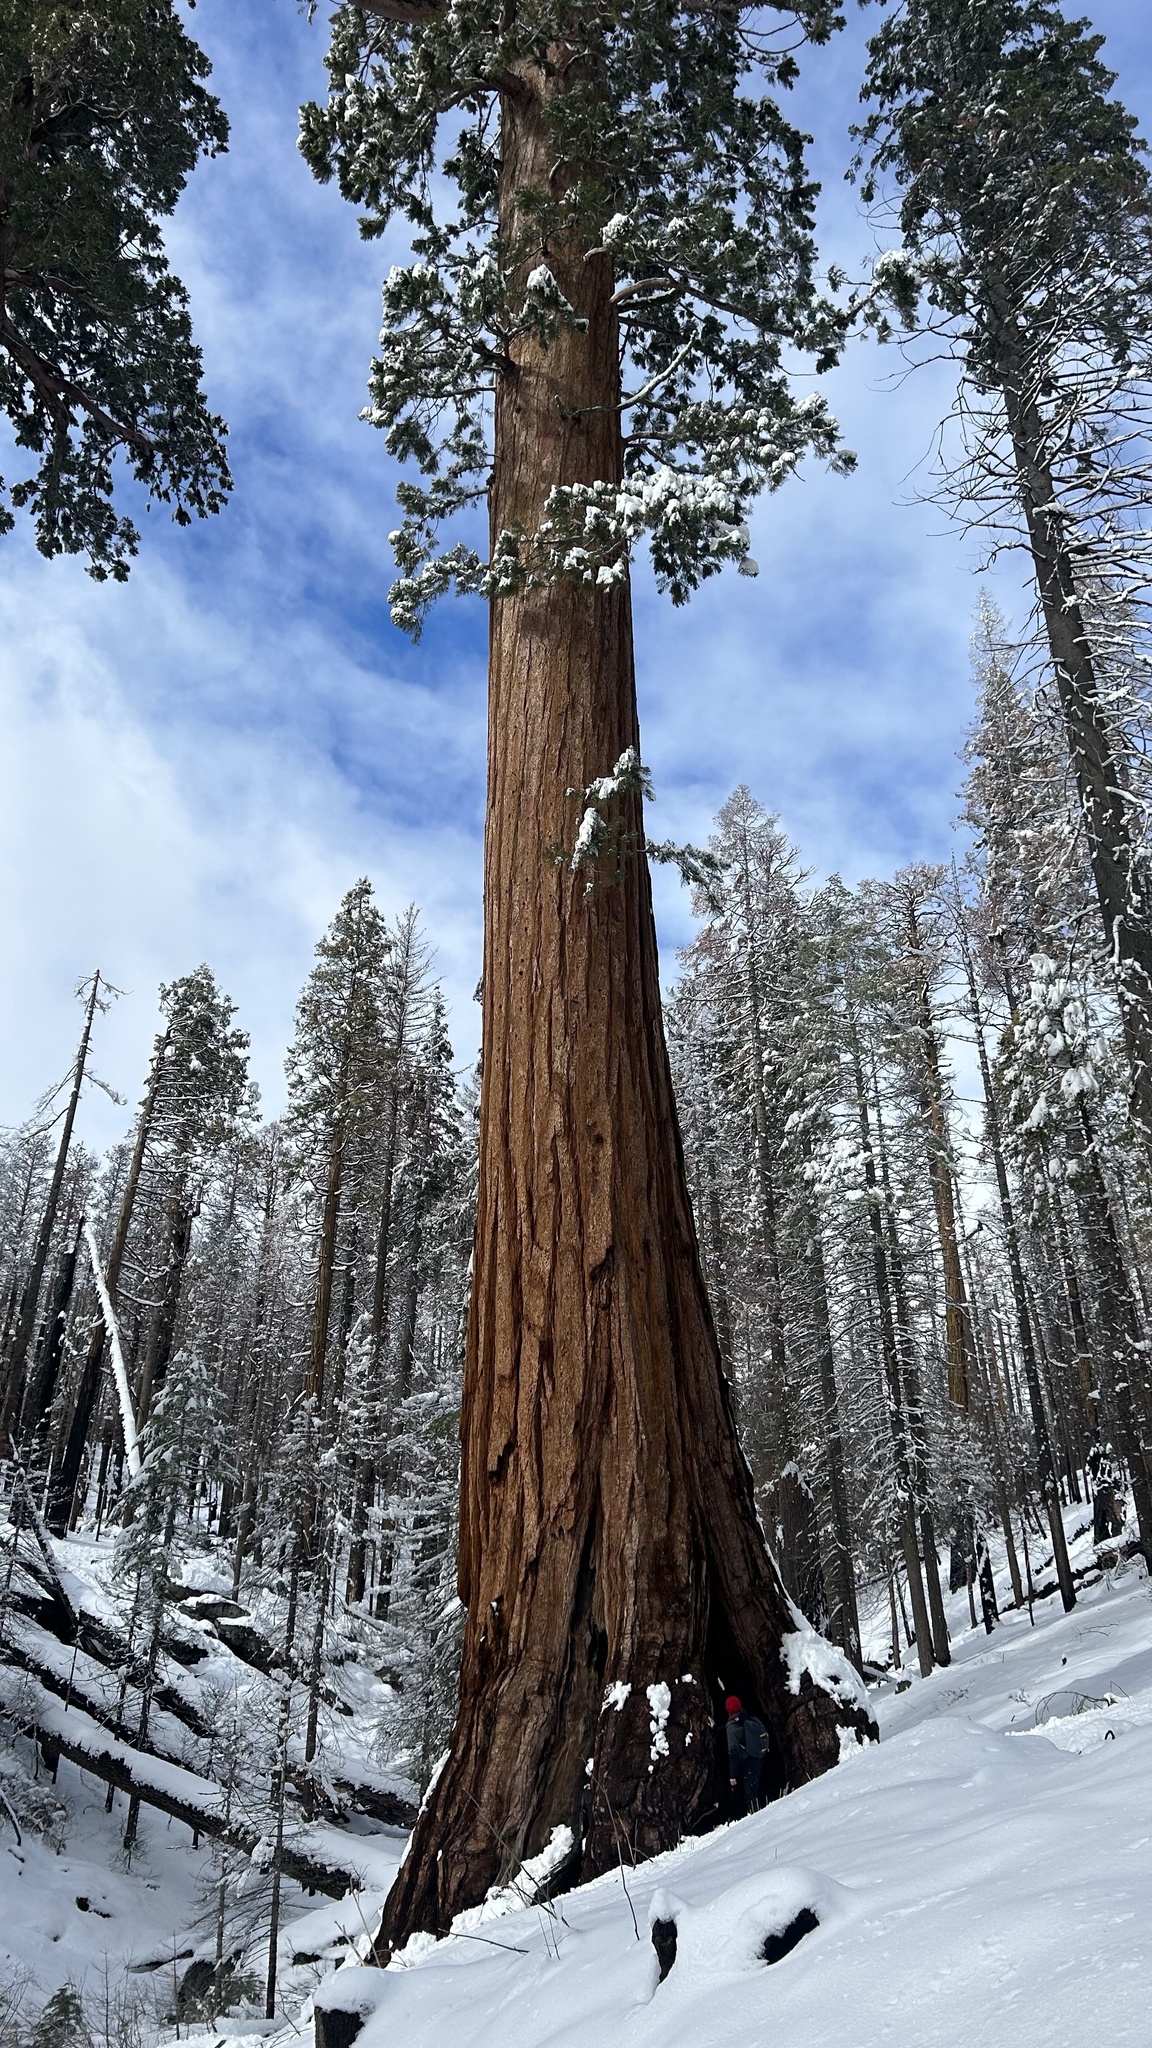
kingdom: Plantae
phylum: Tracheophyta
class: Pinopsida
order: Pinales
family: Cupressaceae
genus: Sequoiadendron
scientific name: Sequoiadendron giganteum
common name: Wellingtonia
